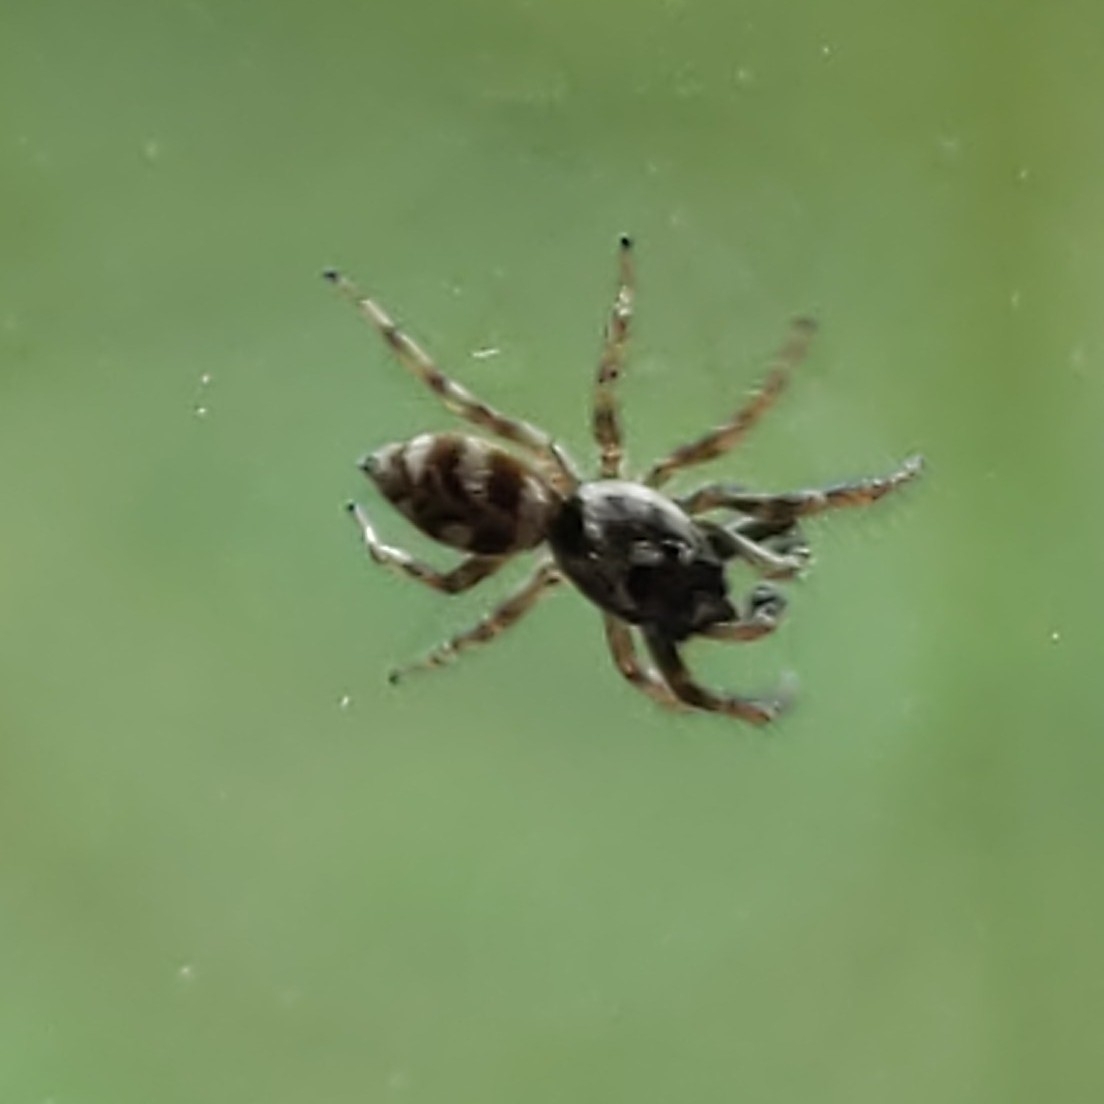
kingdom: Animalia
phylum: Arthropoda
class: Arachnida
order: Araneae
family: Salticidae
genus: Salticus
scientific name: Salticus scenicus
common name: Zebra jumper
